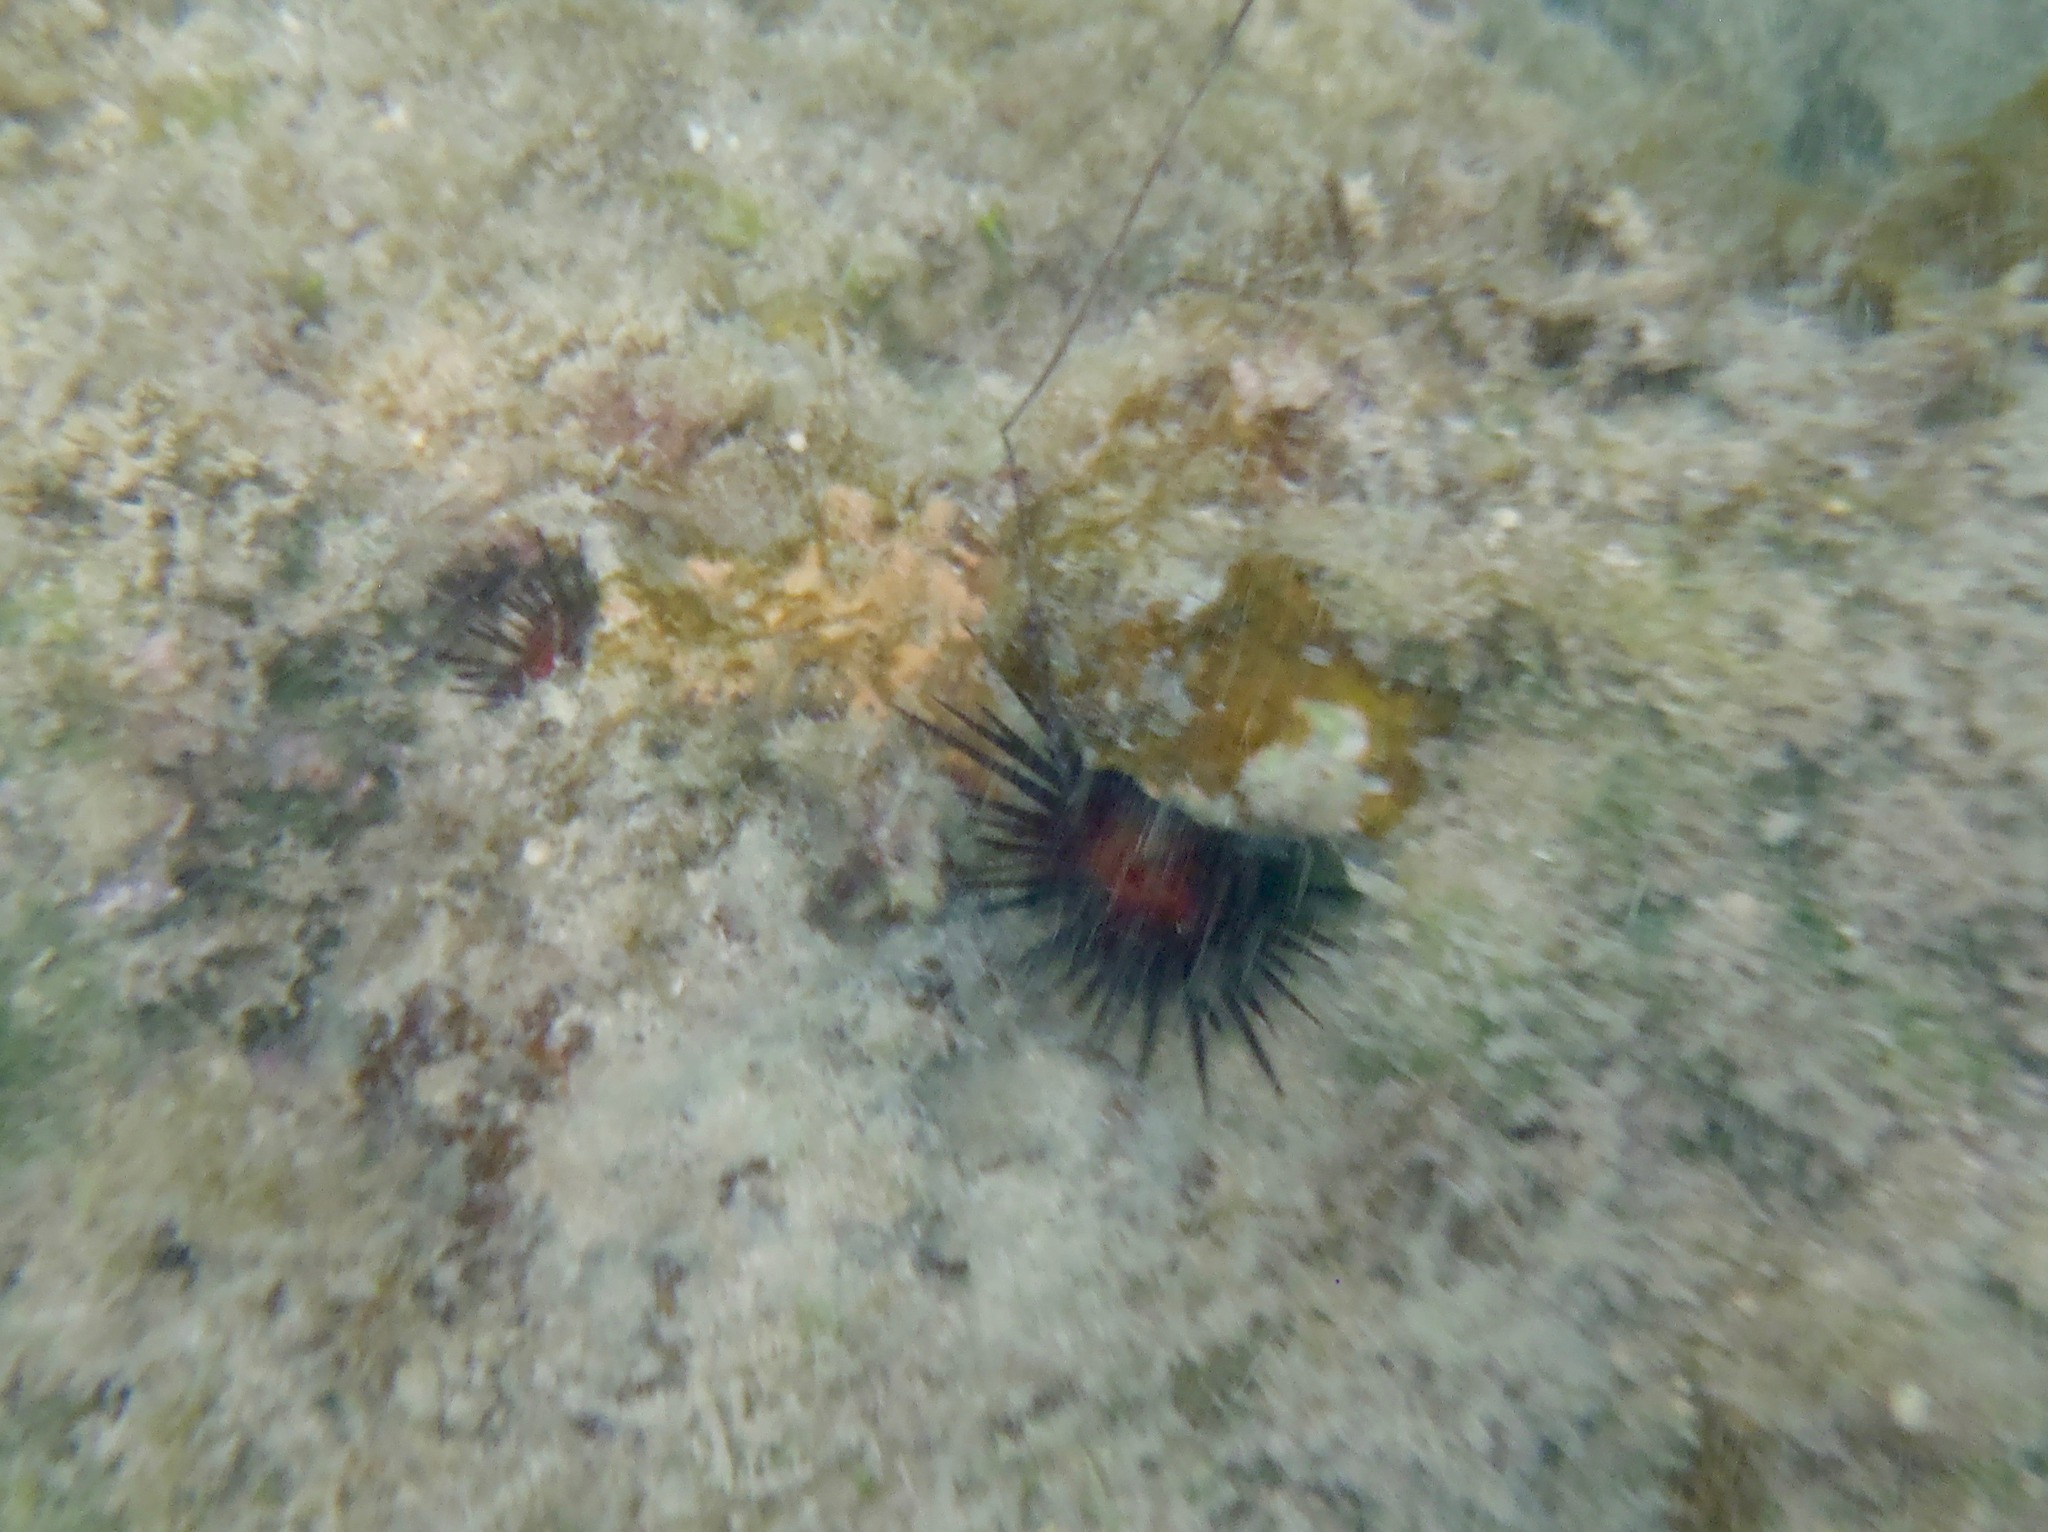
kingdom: Animalia
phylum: Echinodermata
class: Echinoidea
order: Camarodonta
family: Echinometridae
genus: Echinometra
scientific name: Echinometra lucunter
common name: Rock urchin
